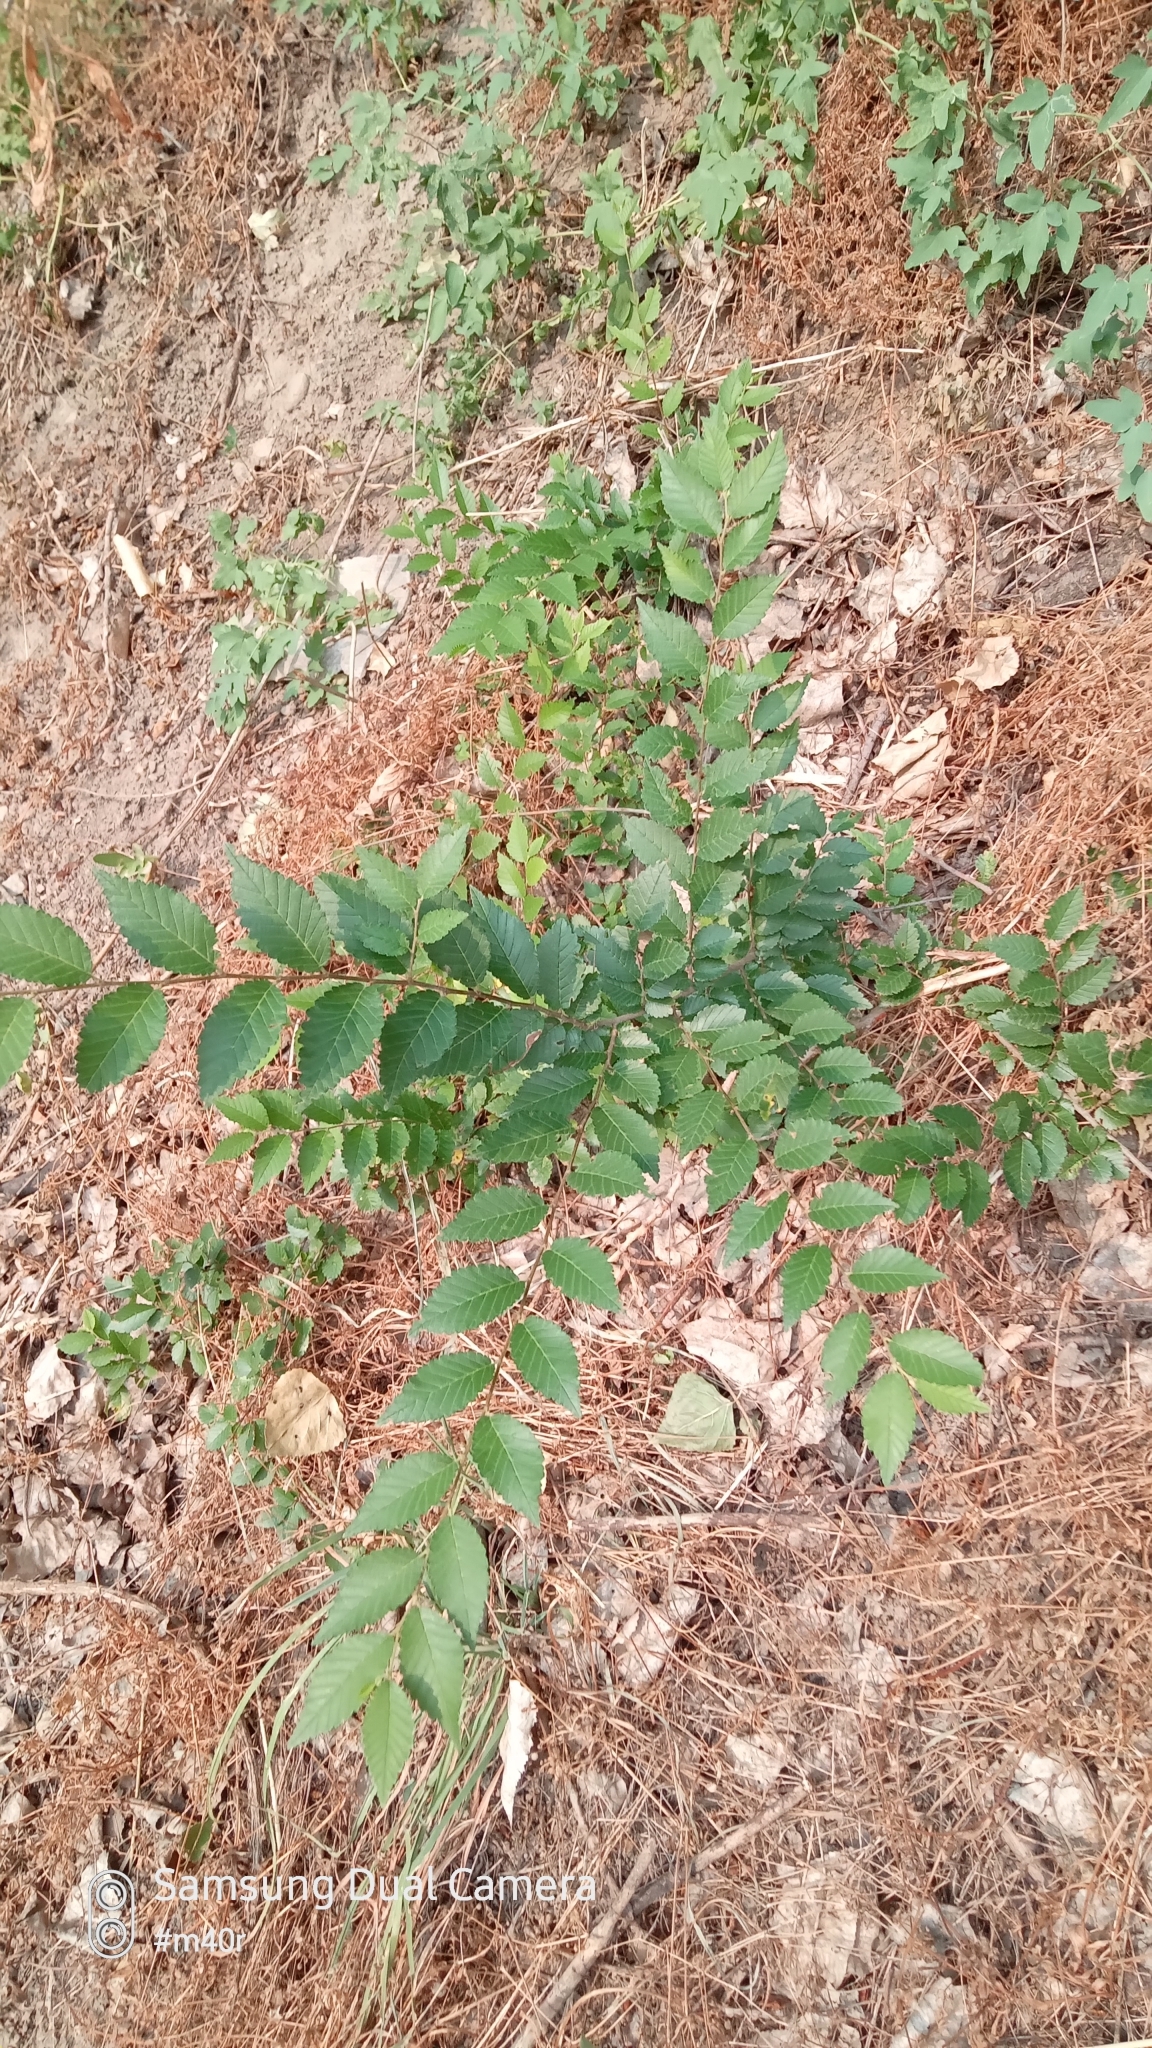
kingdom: Plantae
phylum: Tracheophyta
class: Magnoliopsida
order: Rosales
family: Ulmaceae
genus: Ulmus
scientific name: Ulmus pumila
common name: Siberian elm
